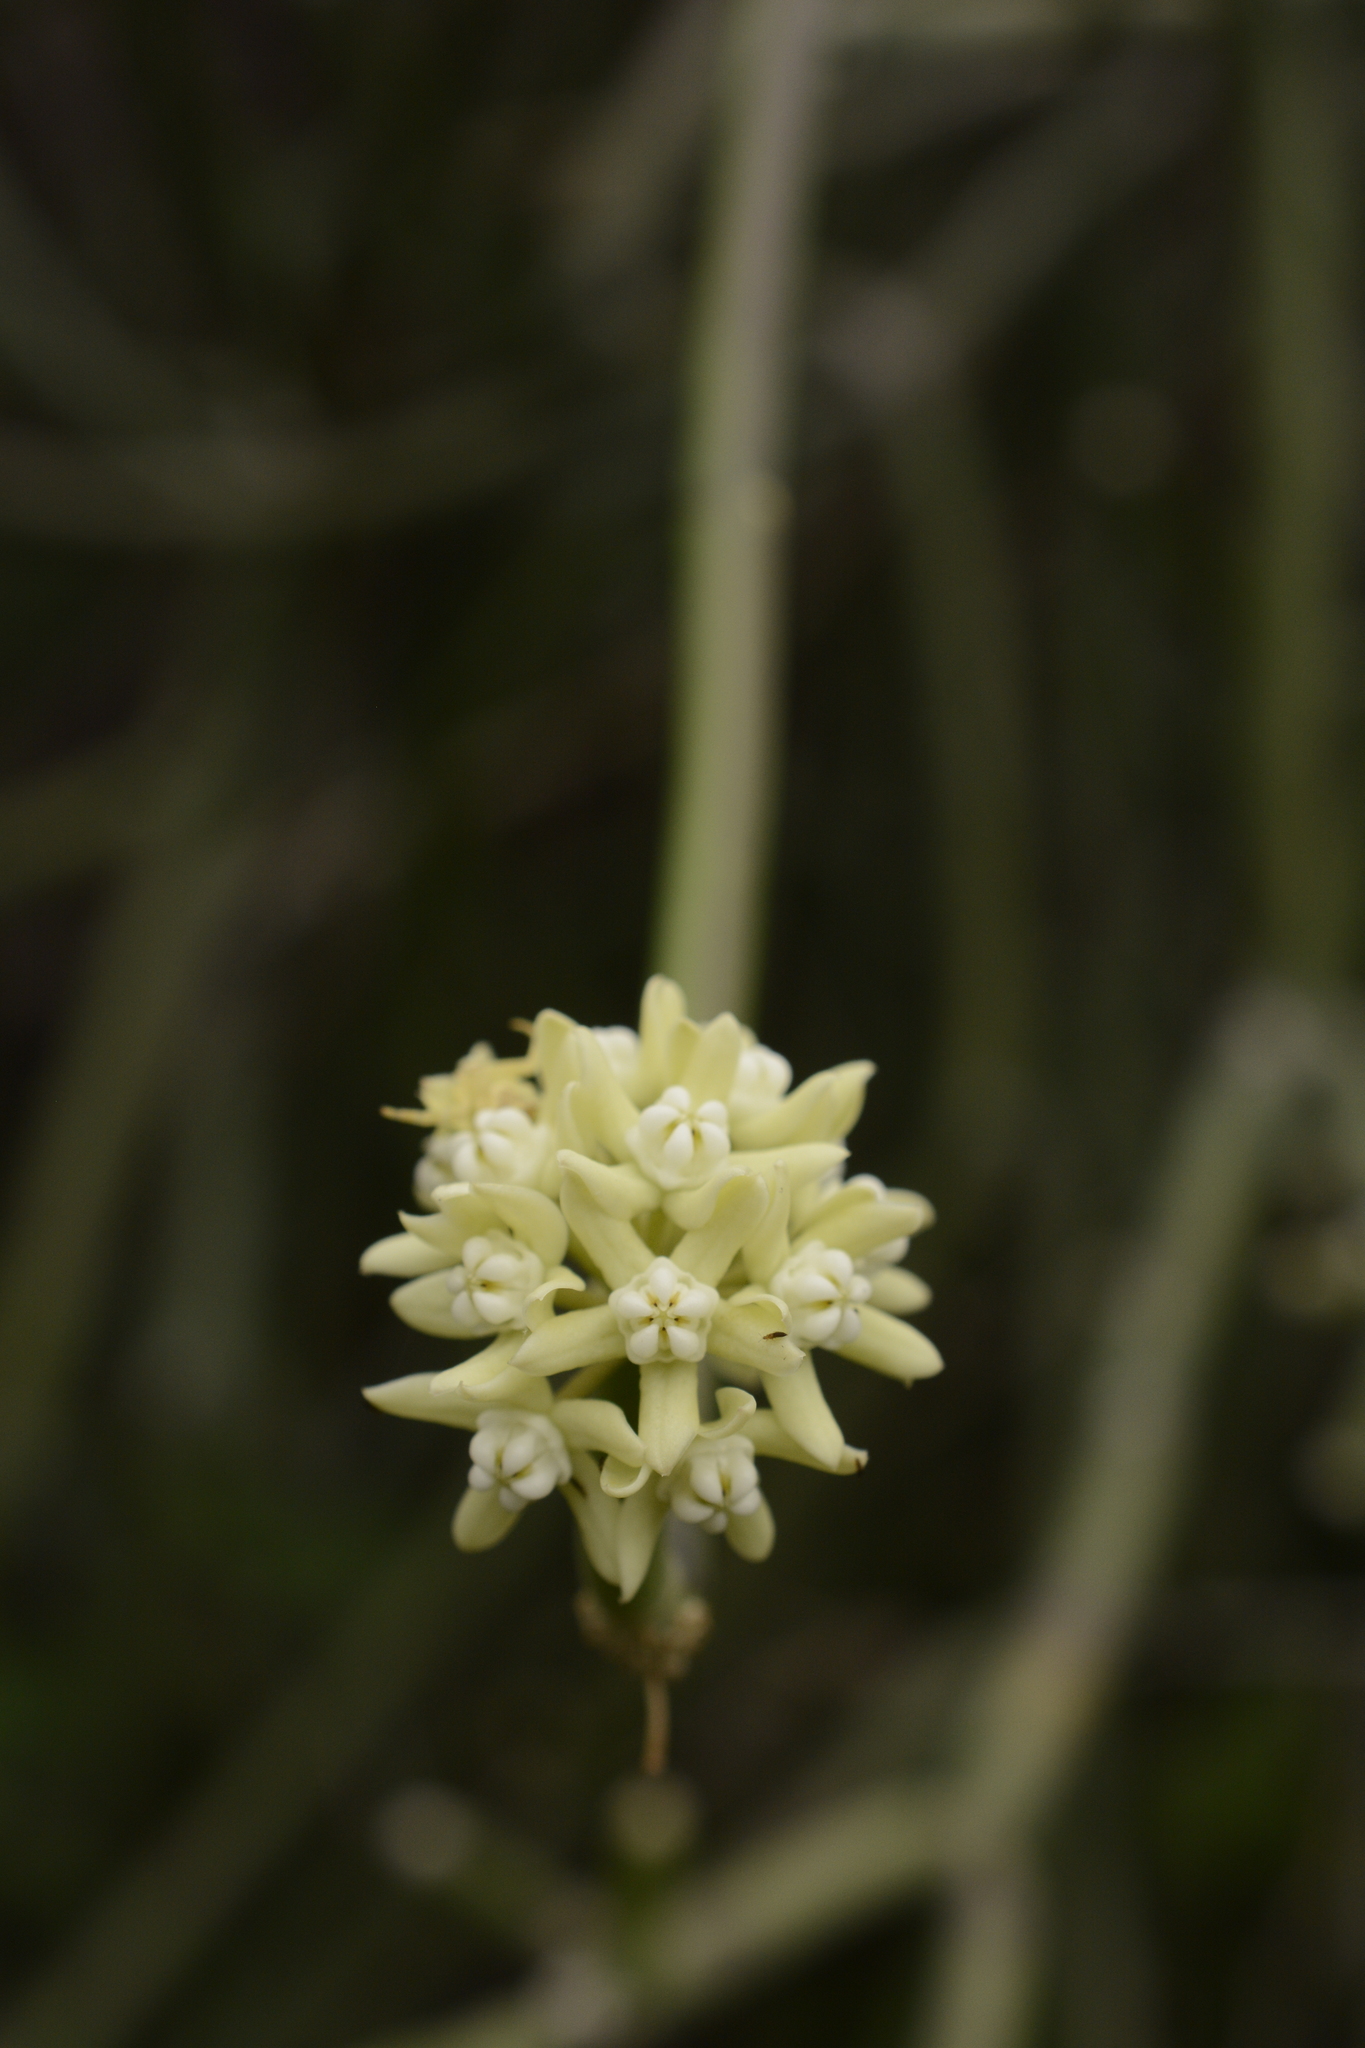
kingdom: Plantae
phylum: Tracheophyta
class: Magnoliopsida
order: Gentianales
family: Apocynaceae
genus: Cynanchum
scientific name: Cynanchum acidum
